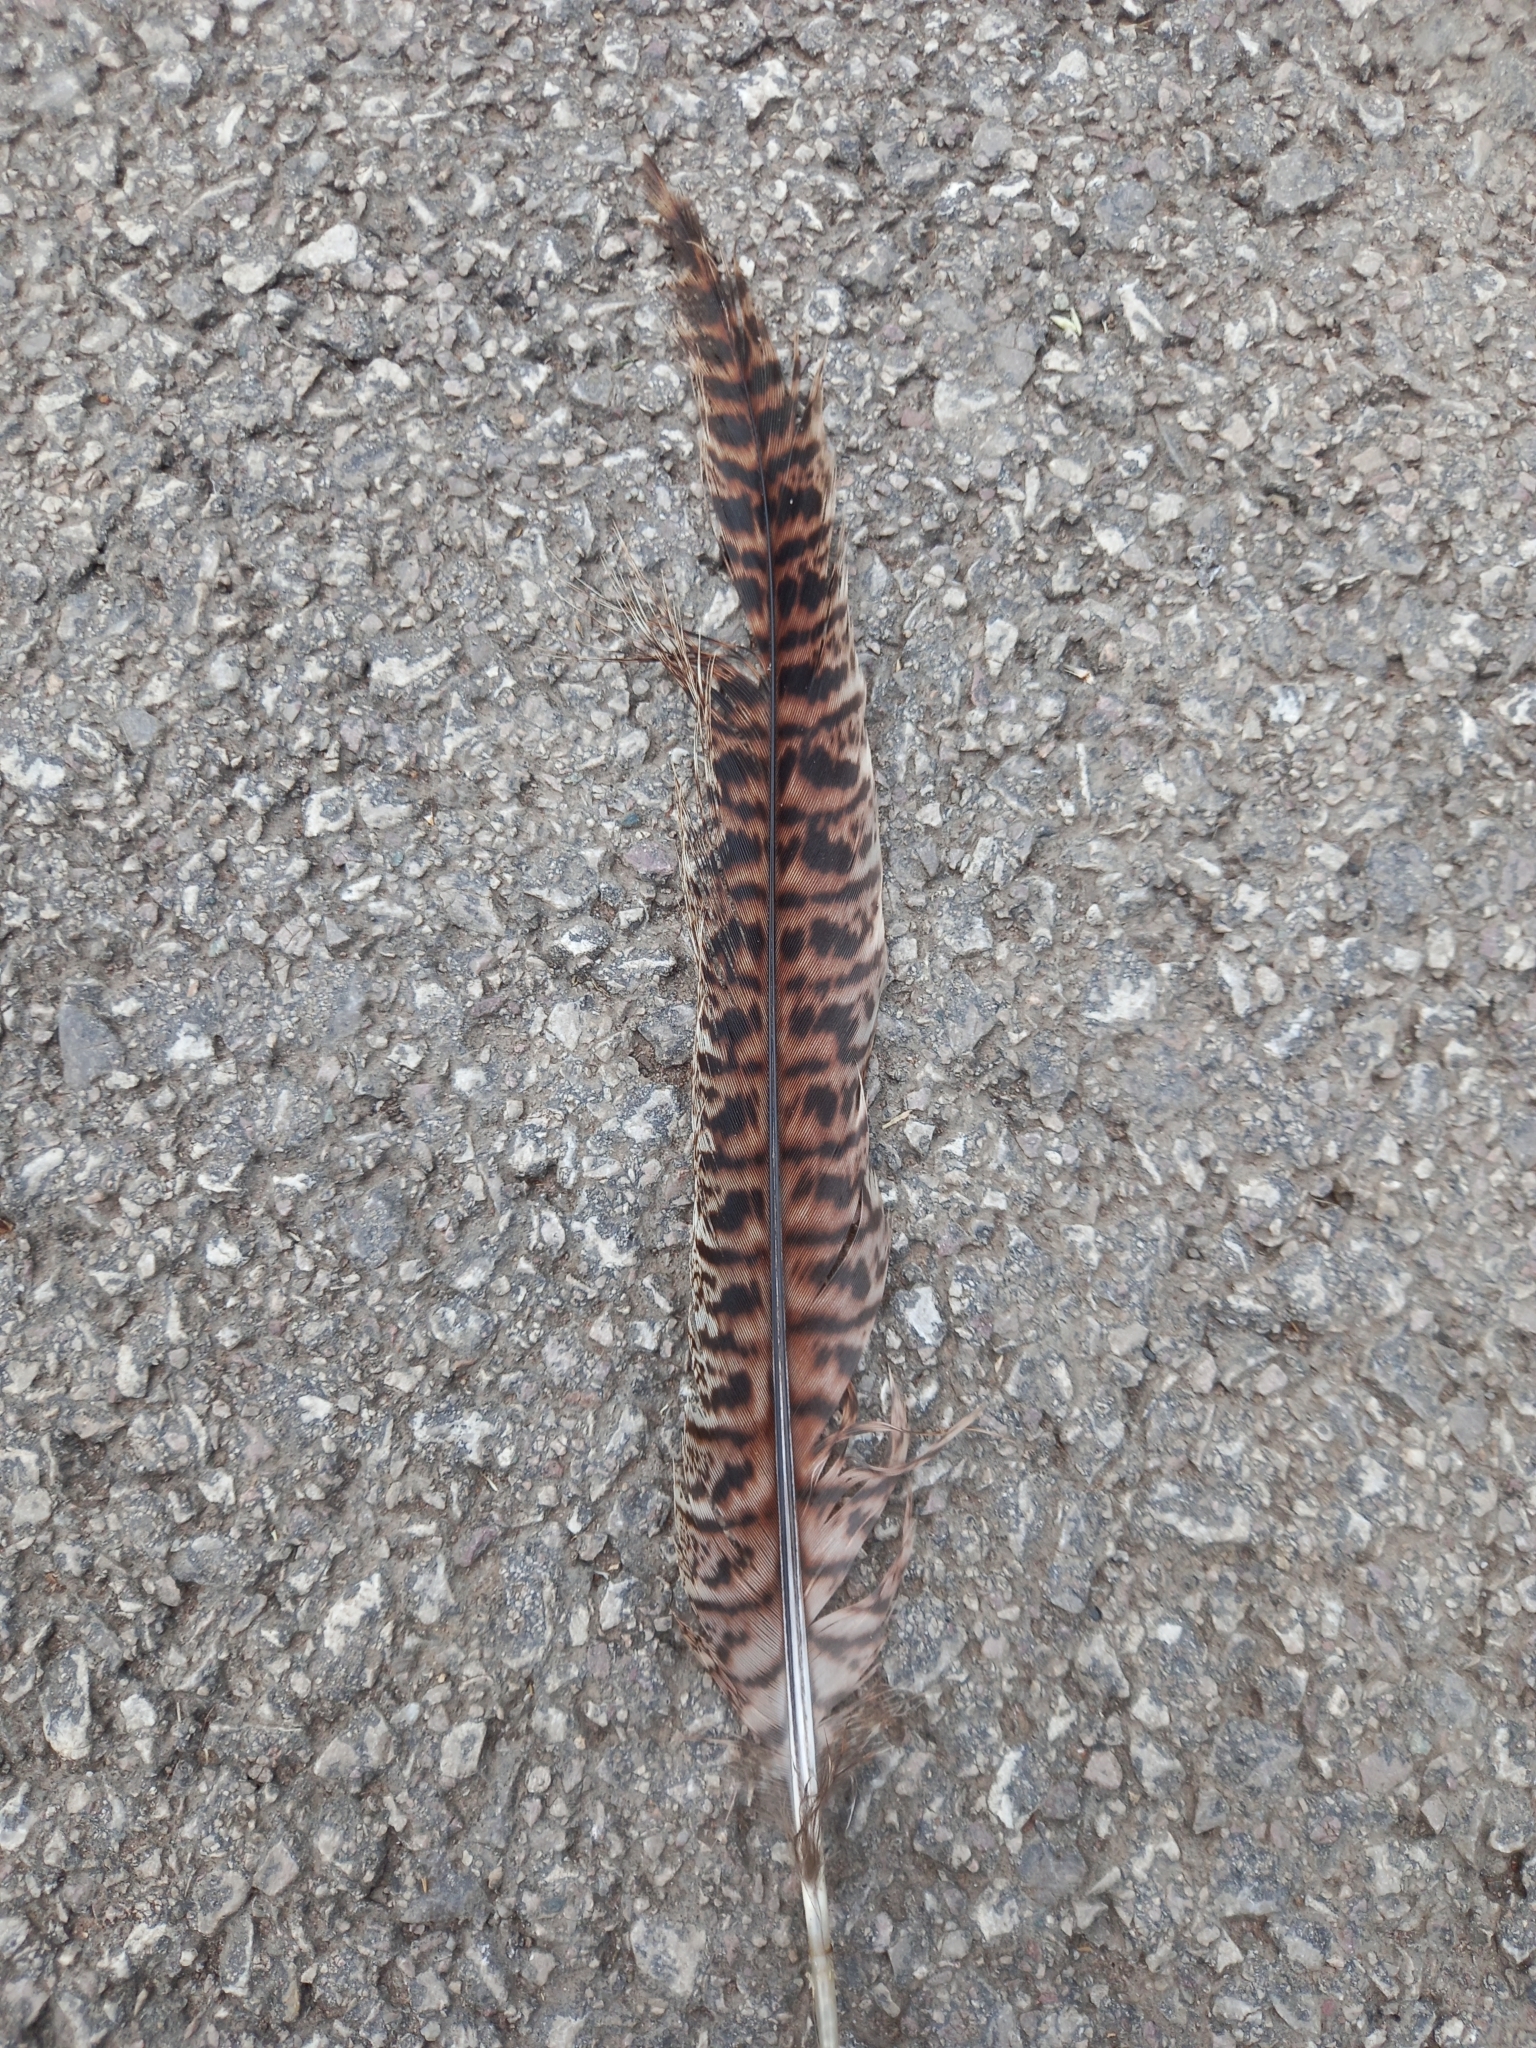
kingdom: Animalia
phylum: Chordata
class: Aves
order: Galliformes
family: Phasianidae
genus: Phasianus
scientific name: Phasianus colchicus
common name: Common pheasant
